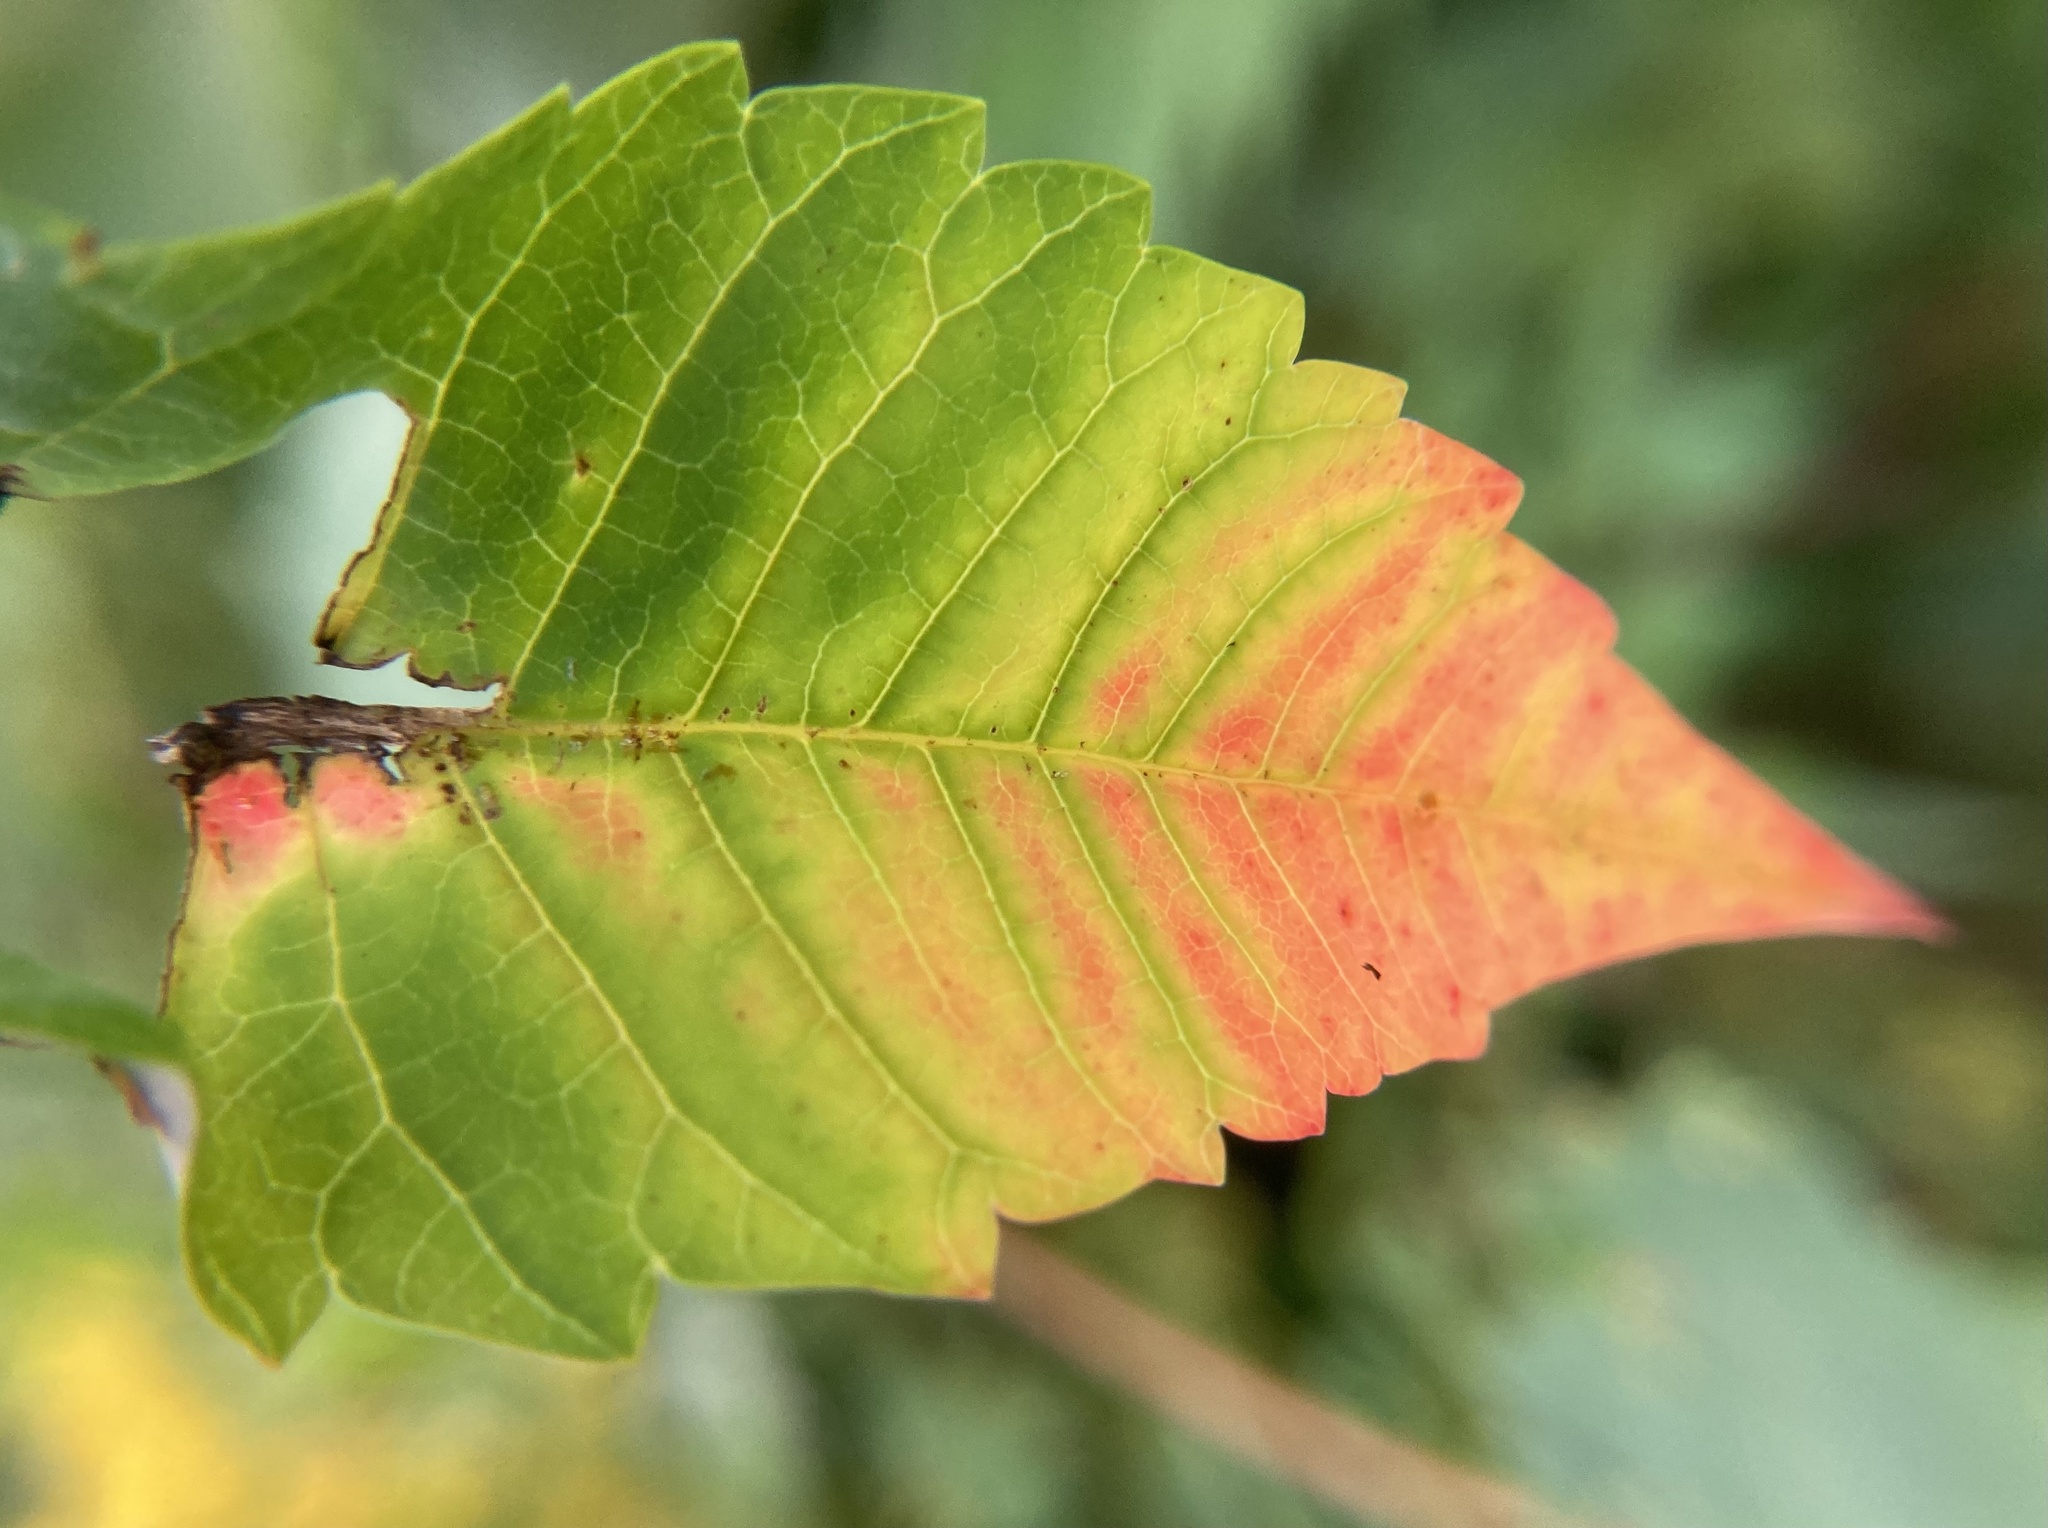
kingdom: Plantae
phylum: Tracheophyta
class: Magnoliopsida
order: Sapindales
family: Anacardiaceae
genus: Rhus
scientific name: Rhus glabra
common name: Scarlet sumac
